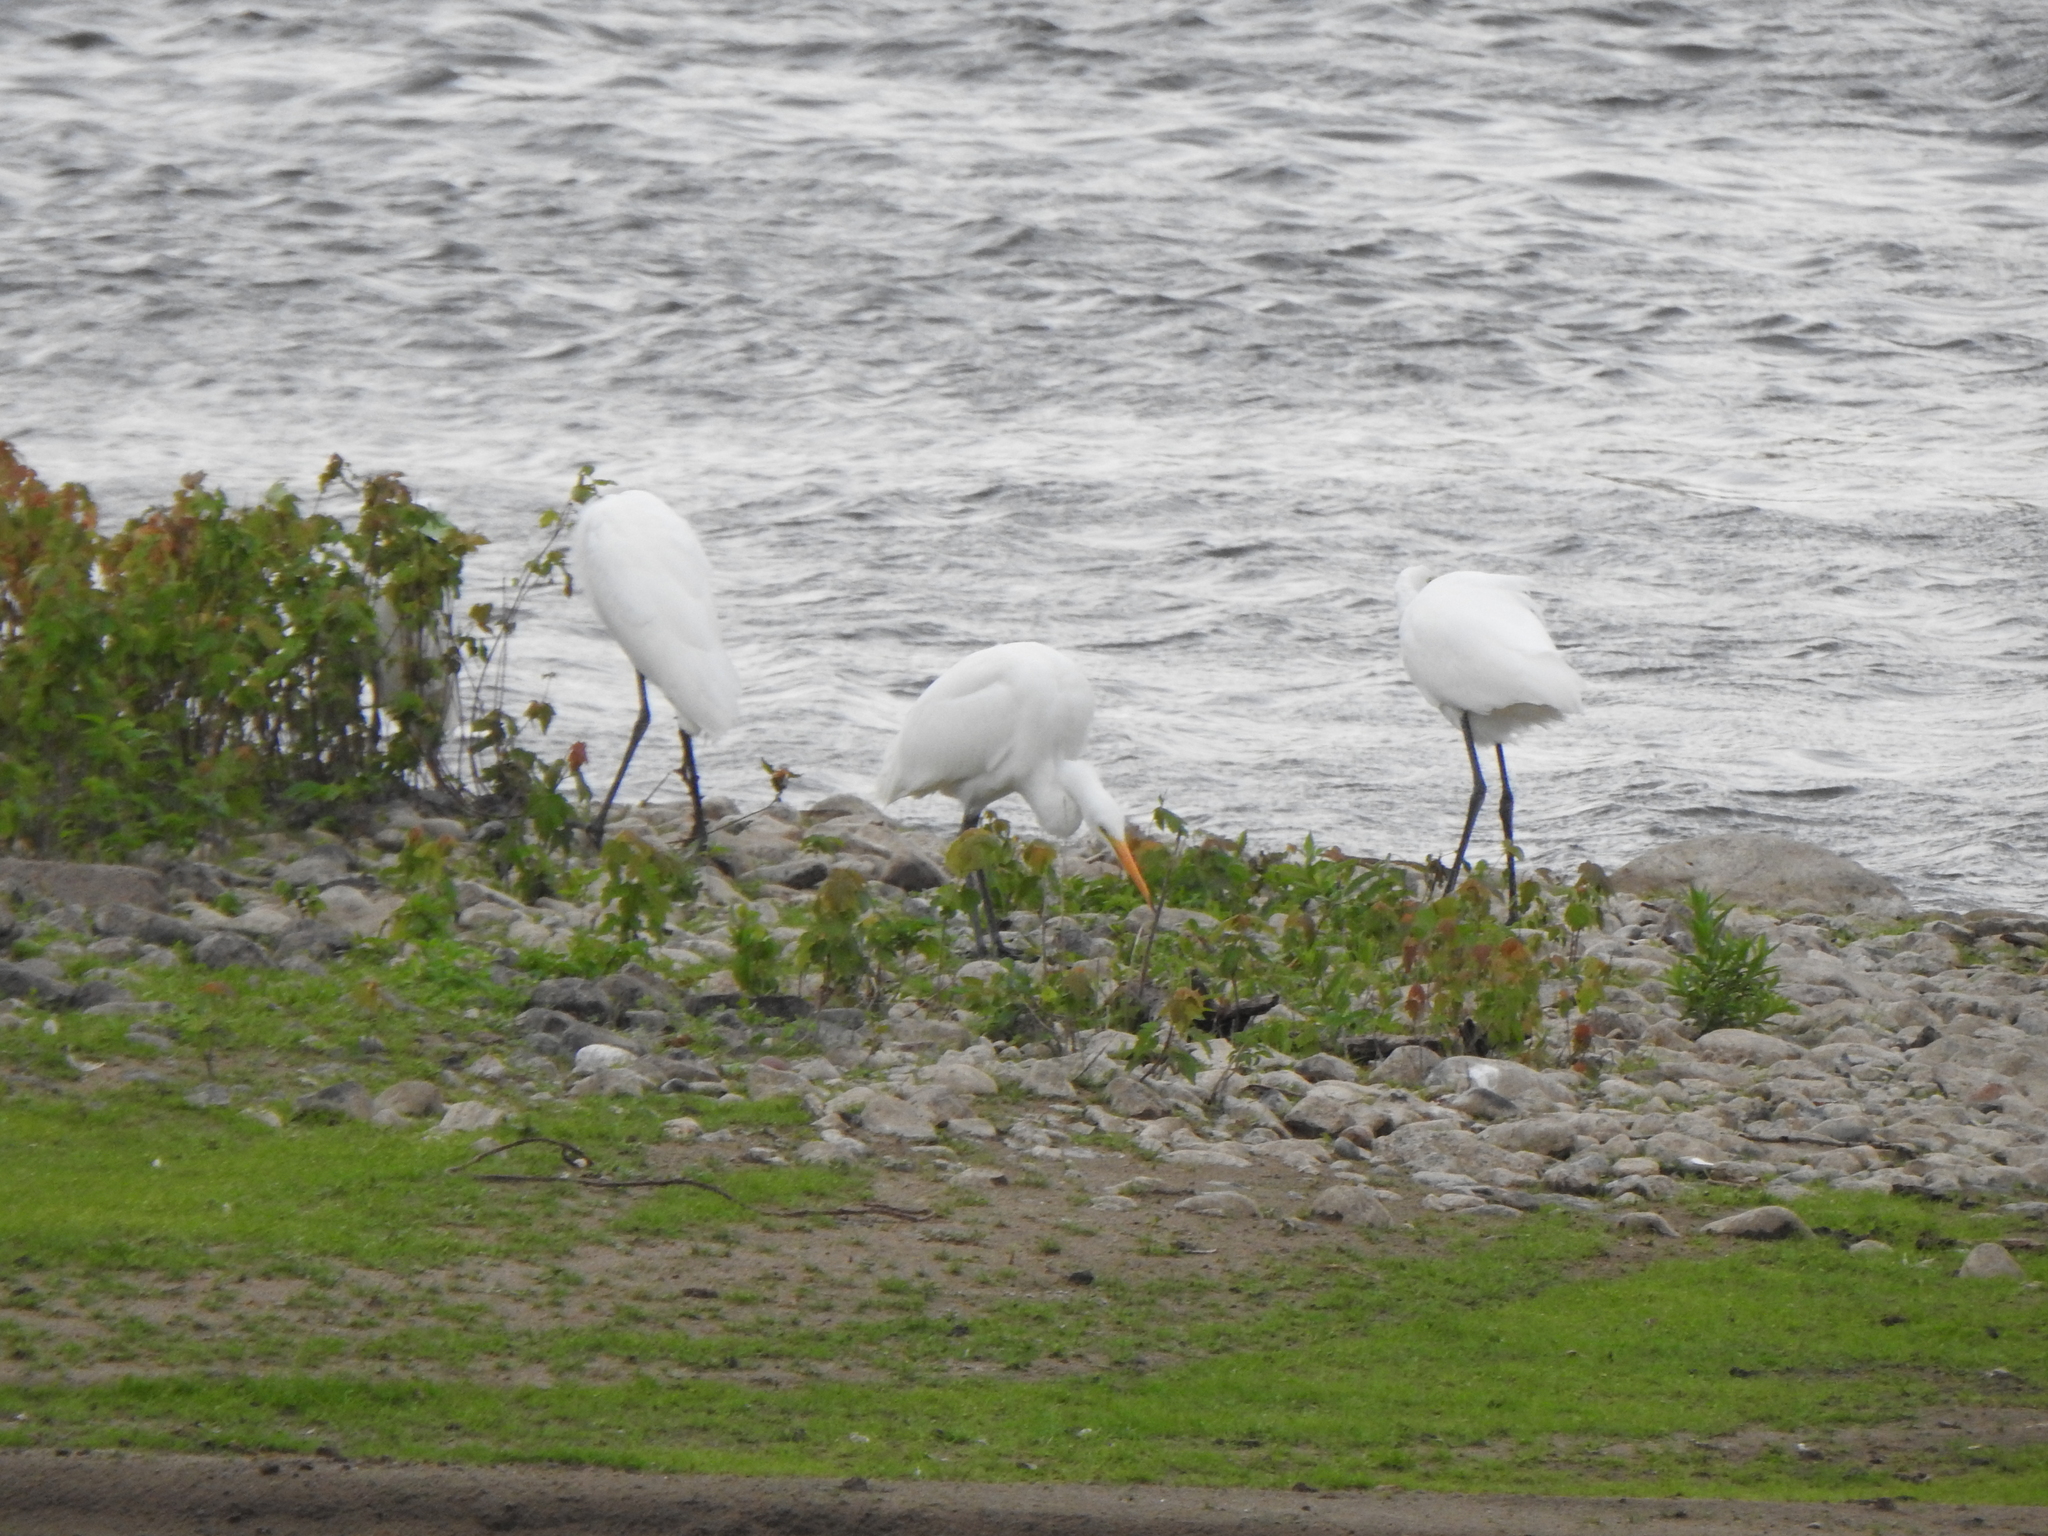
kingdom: Animalia
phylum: Chordata
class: Aves
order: Pelecaniformes
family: Ardeidae
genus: Ardea
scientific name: Ardea alba
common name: Great egret
